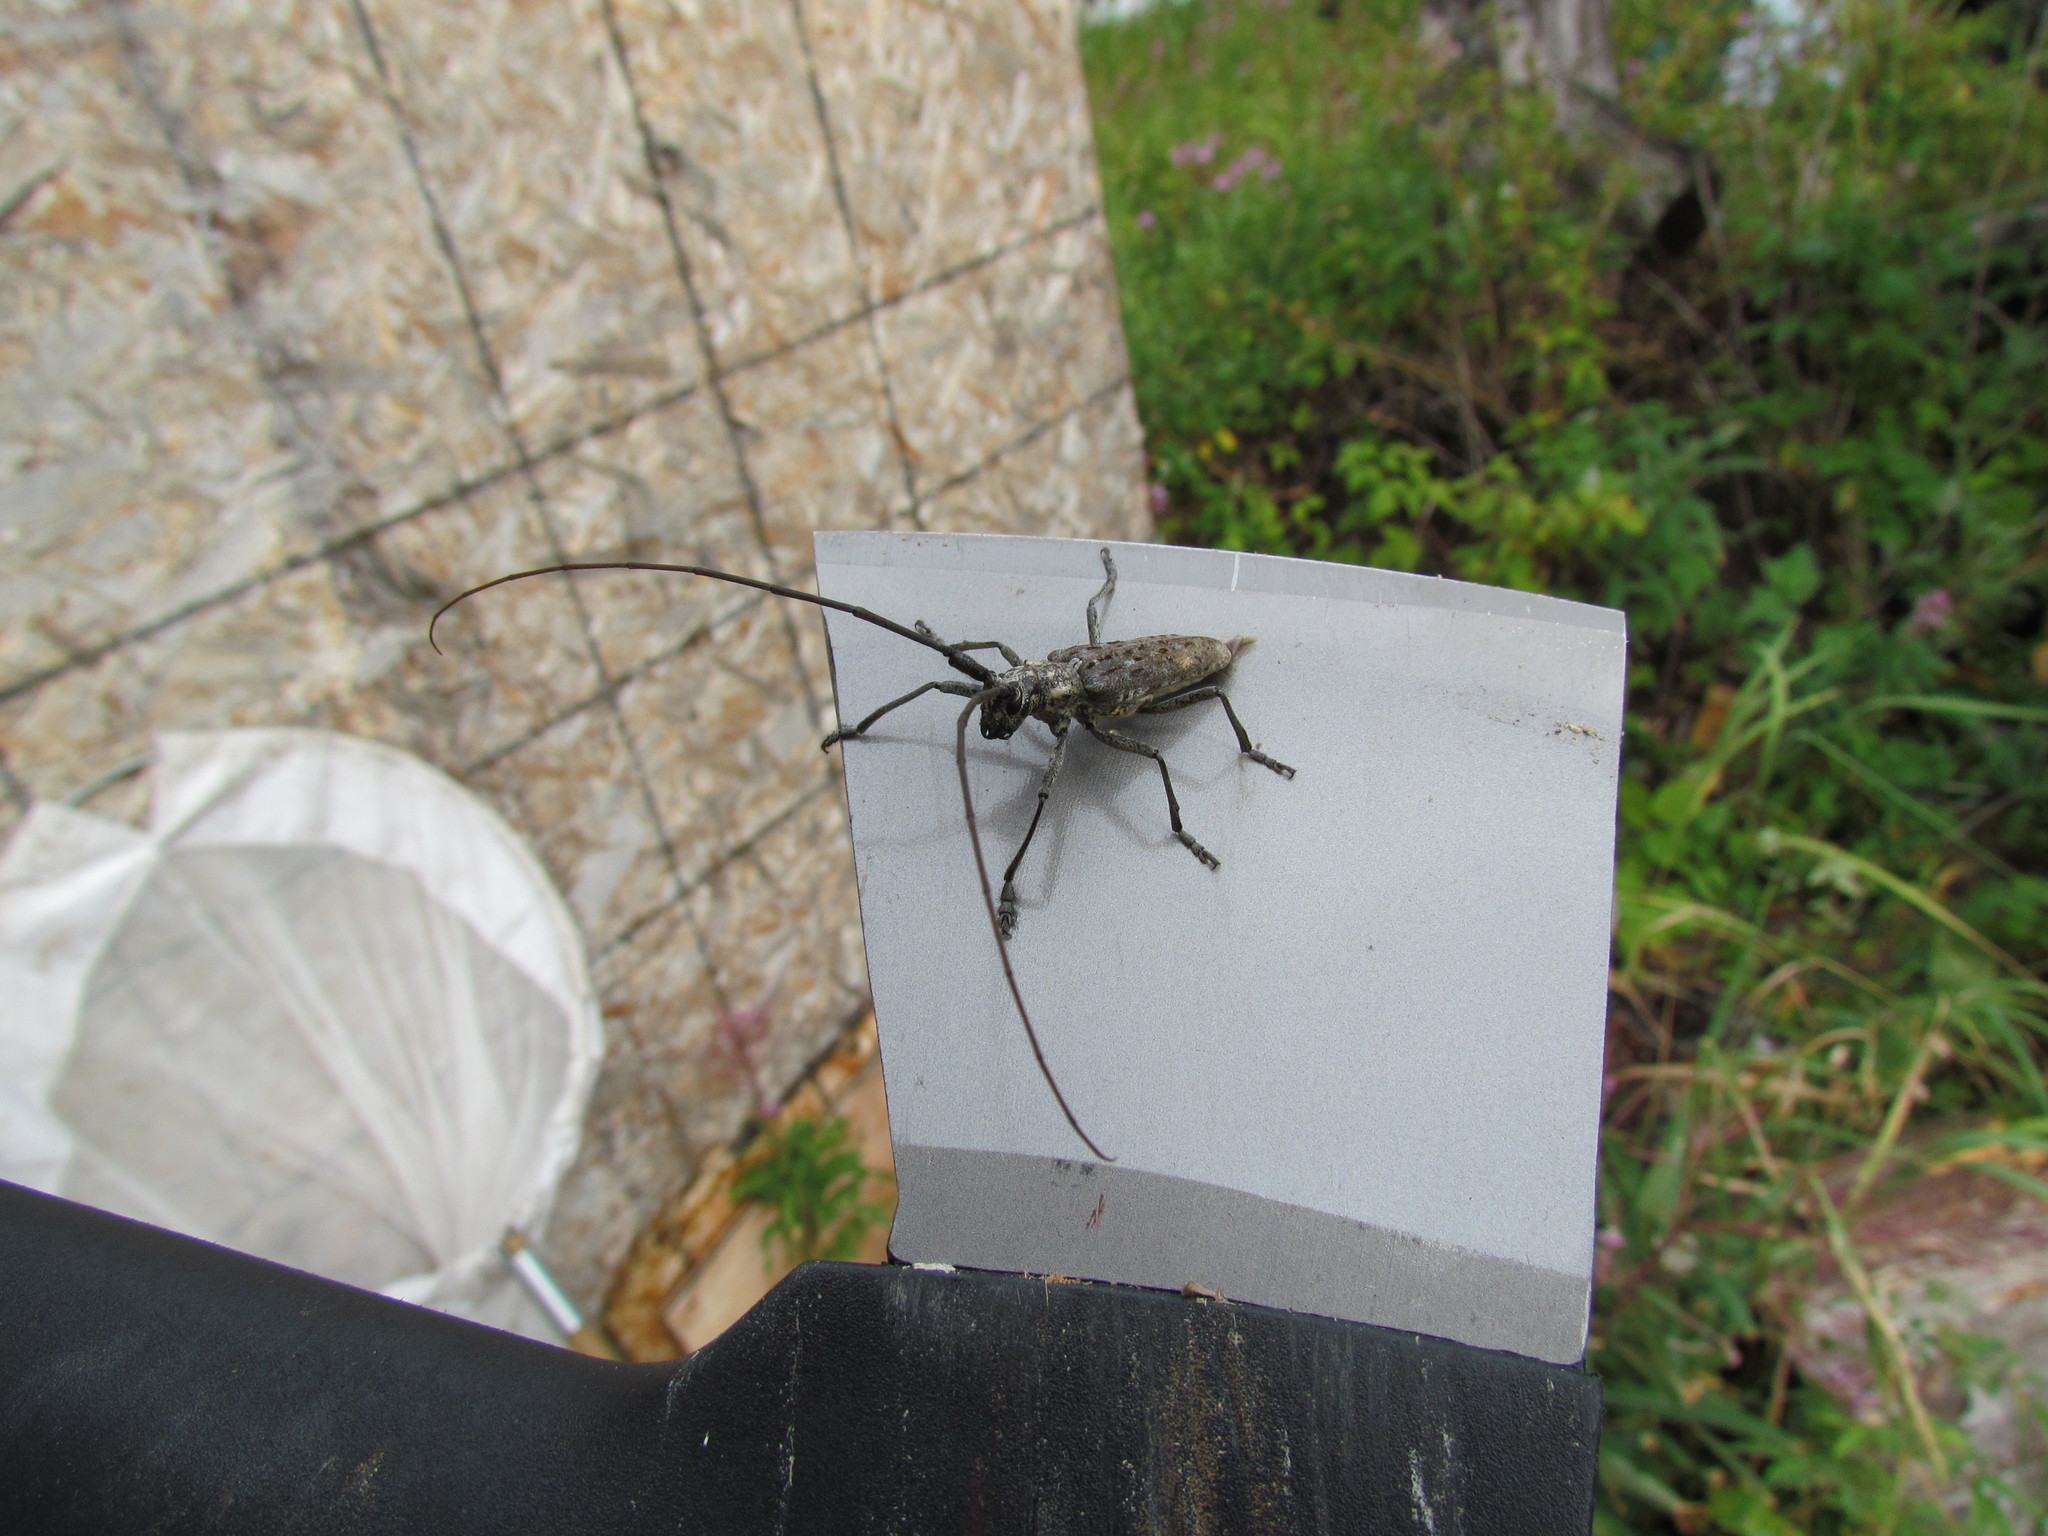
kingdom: Animalia
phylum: Arthropoda
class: Insecta
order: Coleoptera
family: Cerambycidae
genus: Monochamus
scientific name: Monochamus notatus
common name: Northeastern pine sawyer beetle
